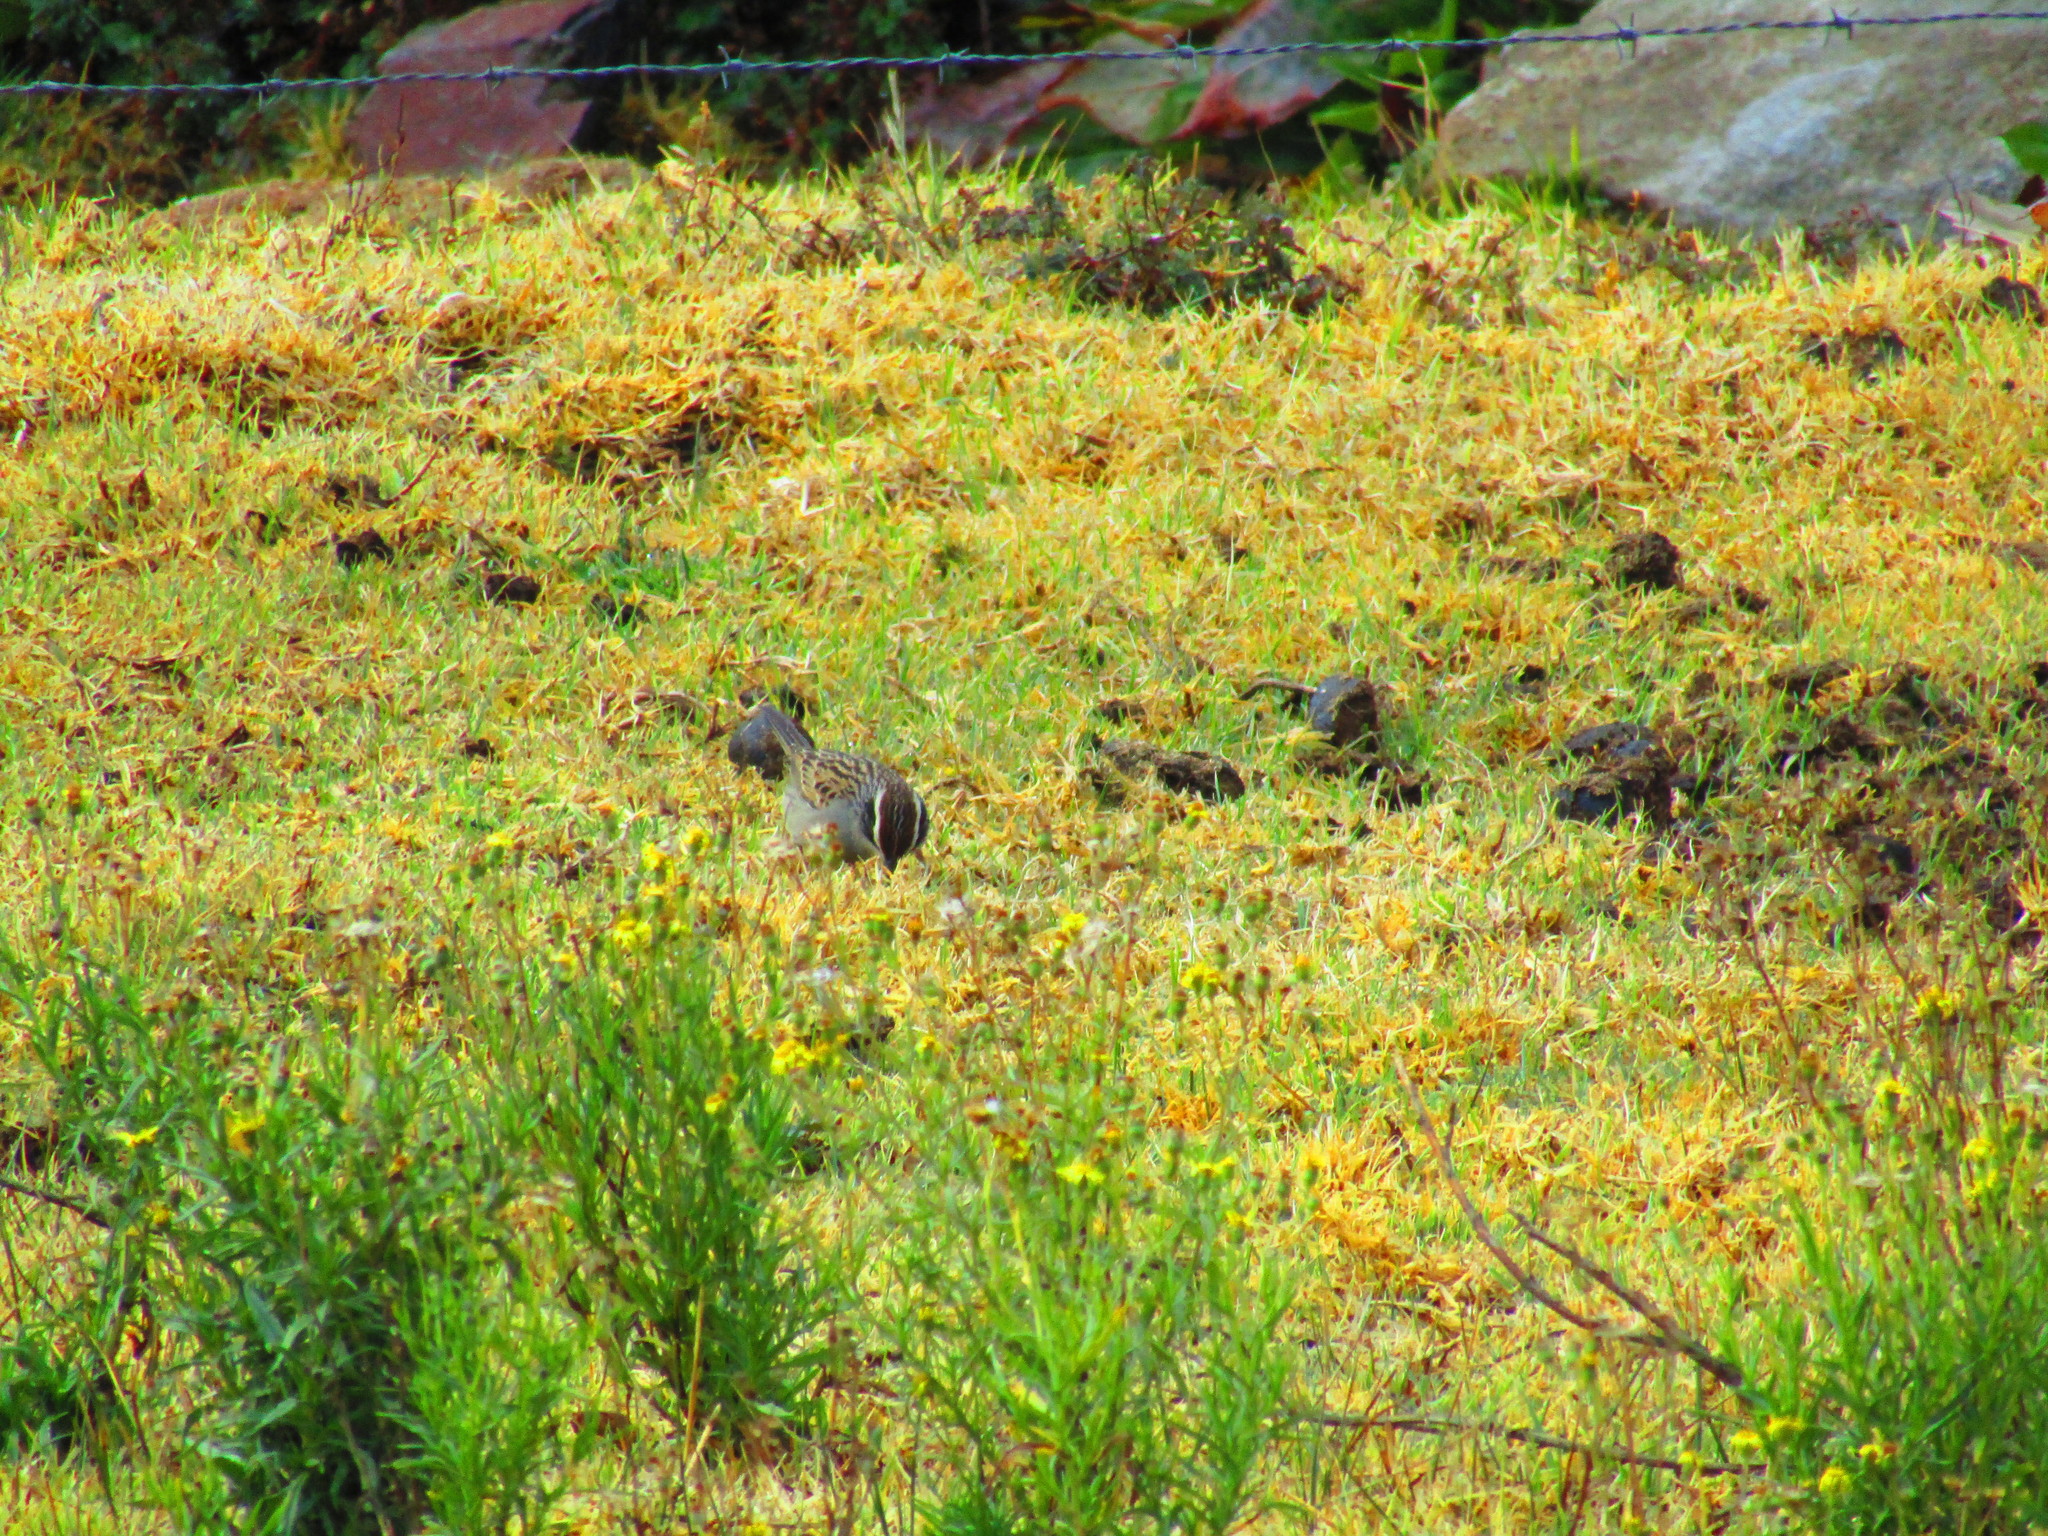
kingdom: Animalia
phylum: Chordata
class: Aves
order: Passeriformes
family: Passerellidae
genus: Oriturus
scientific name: Oriturus superciliosus
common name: Striped sparrow
